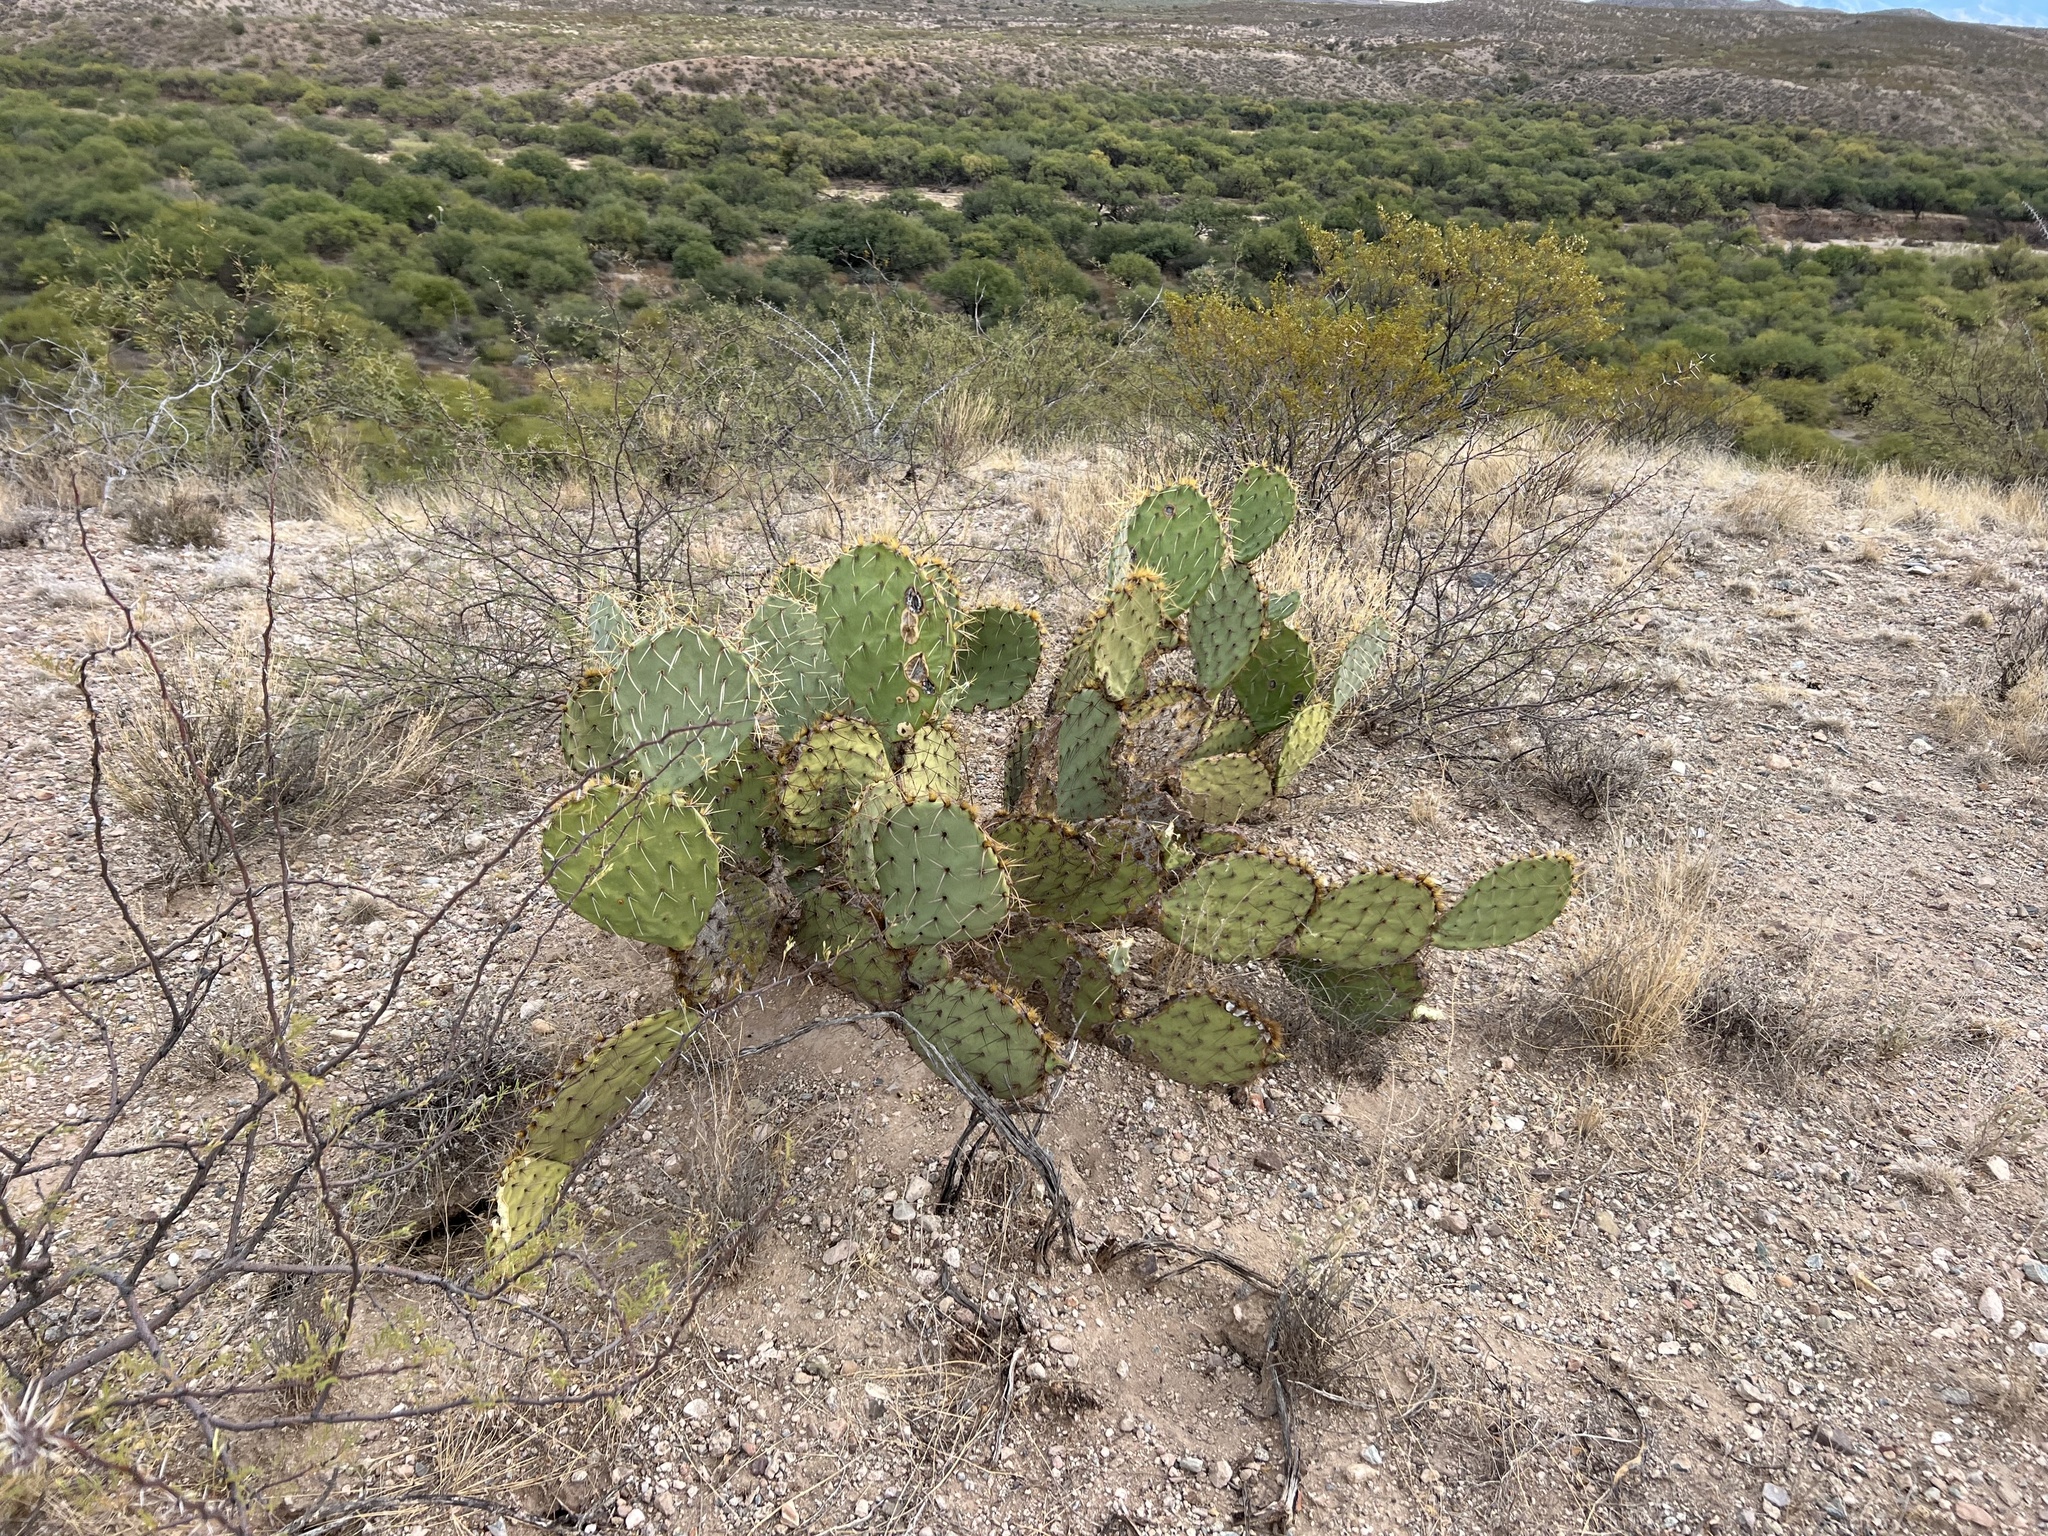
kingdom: Plantae
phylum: Tracheophyta
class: Magnoliopsida
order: Caryophyllales
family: Cactaceae
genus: Opuntia
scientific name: Opuntia engelmannii
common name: Cactus-apple
